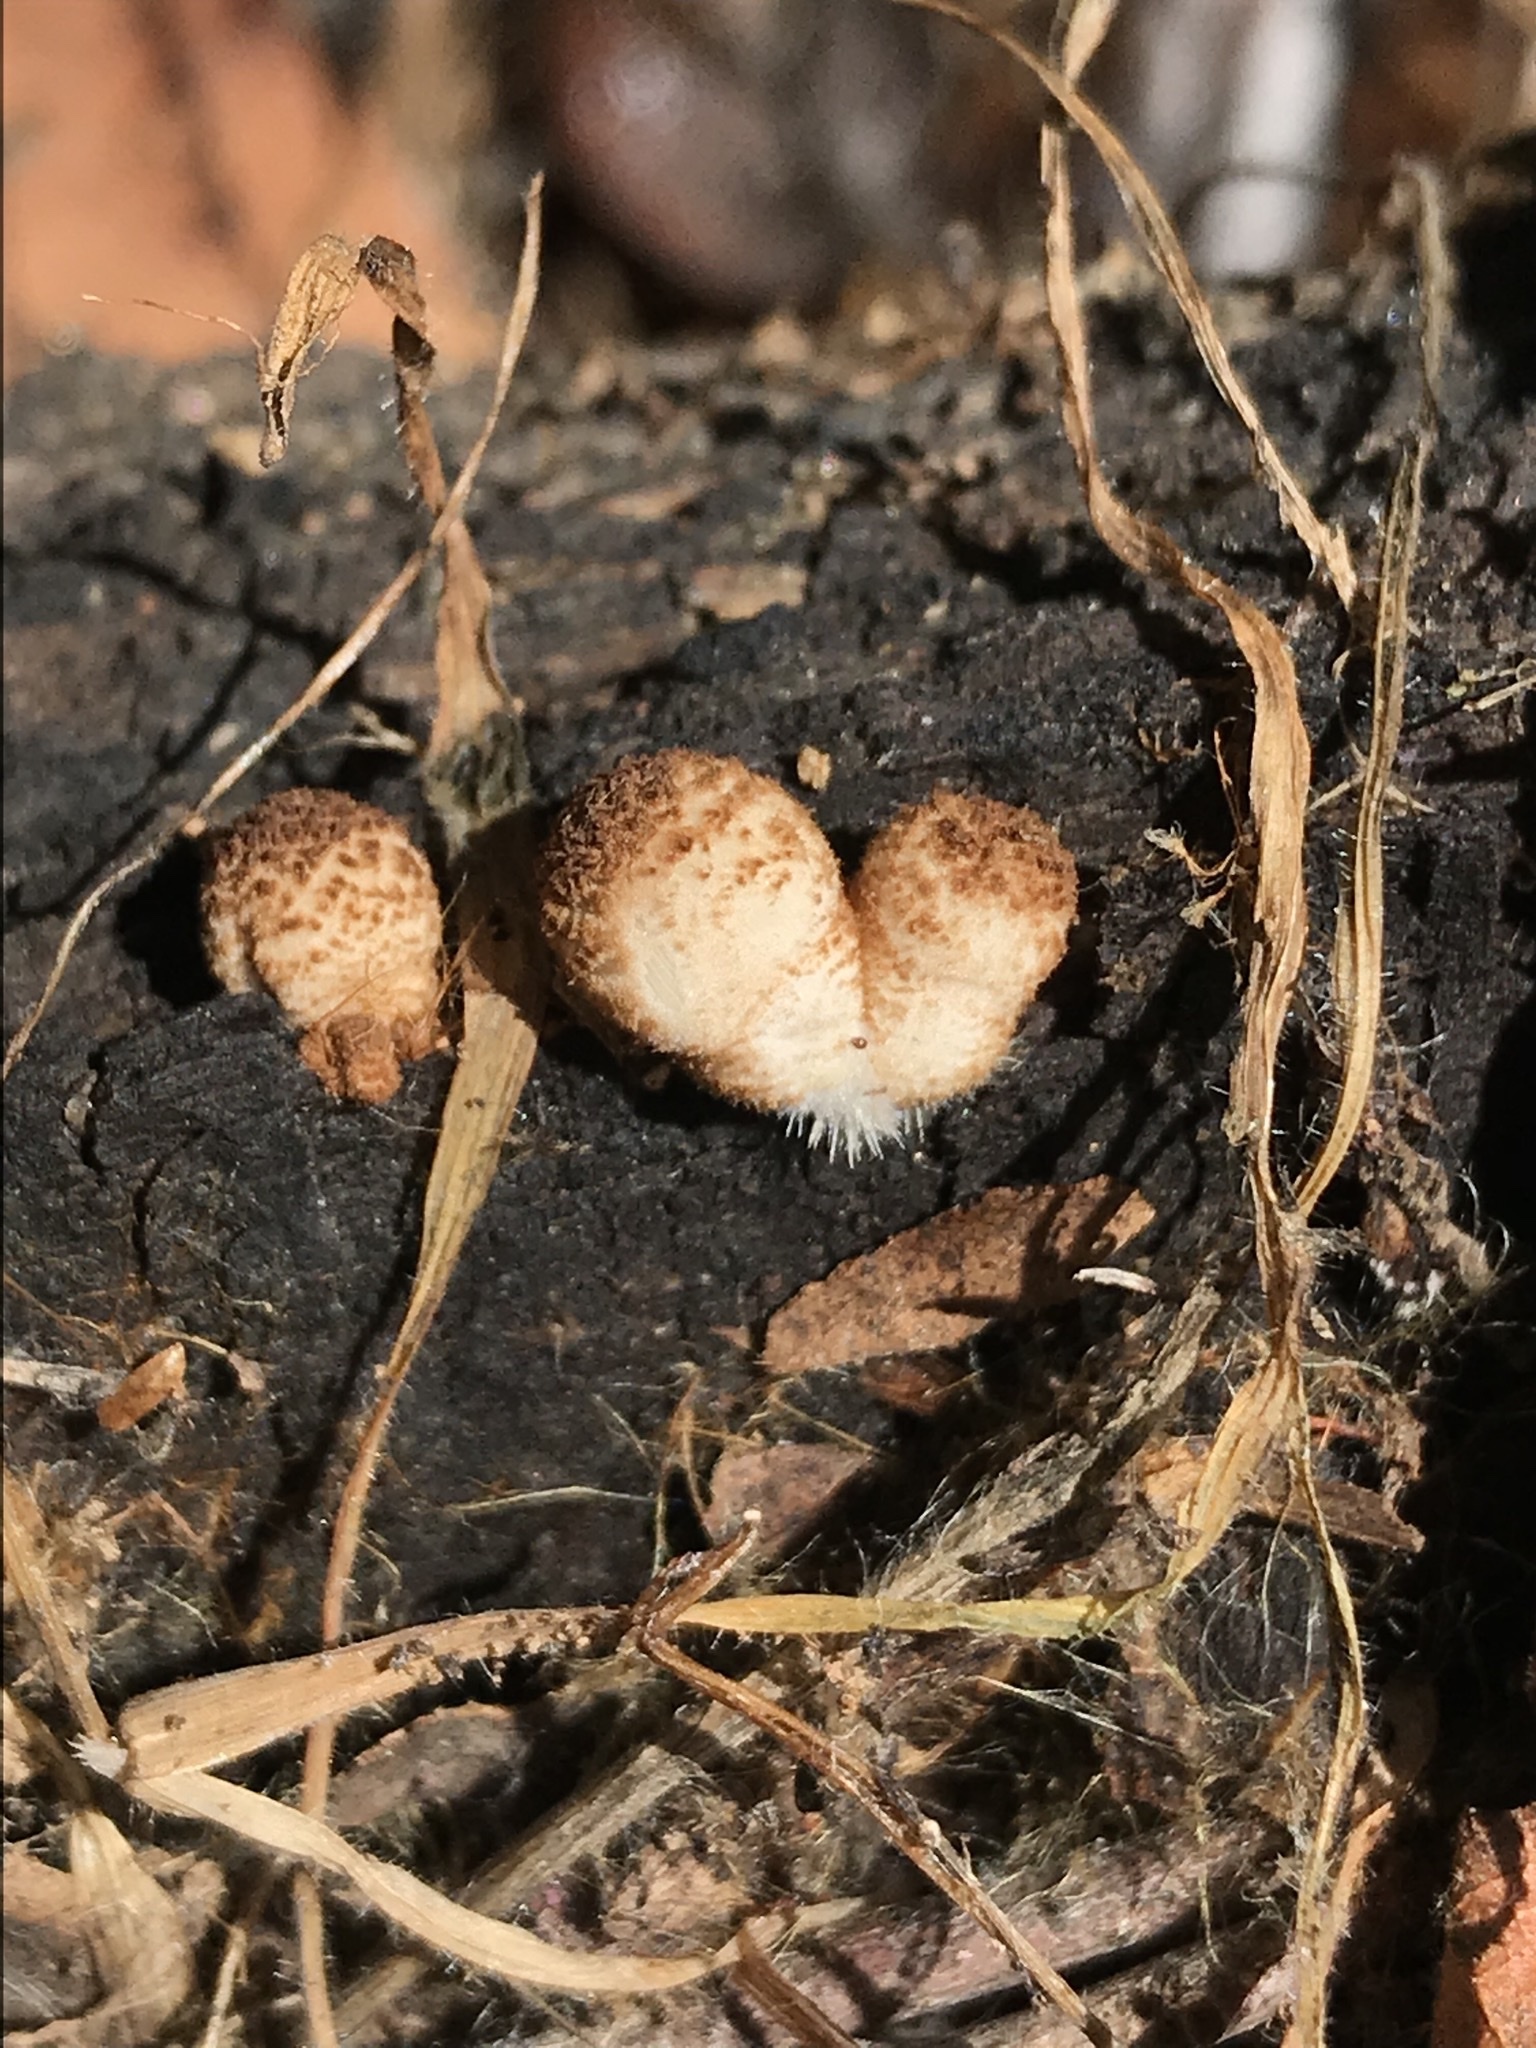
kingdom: Fungi
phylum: Basidiomycota
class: Agaricomycetes
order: Agaricales
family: Psathyrellaceae
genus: Coprinellus
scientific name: Coprinellus
